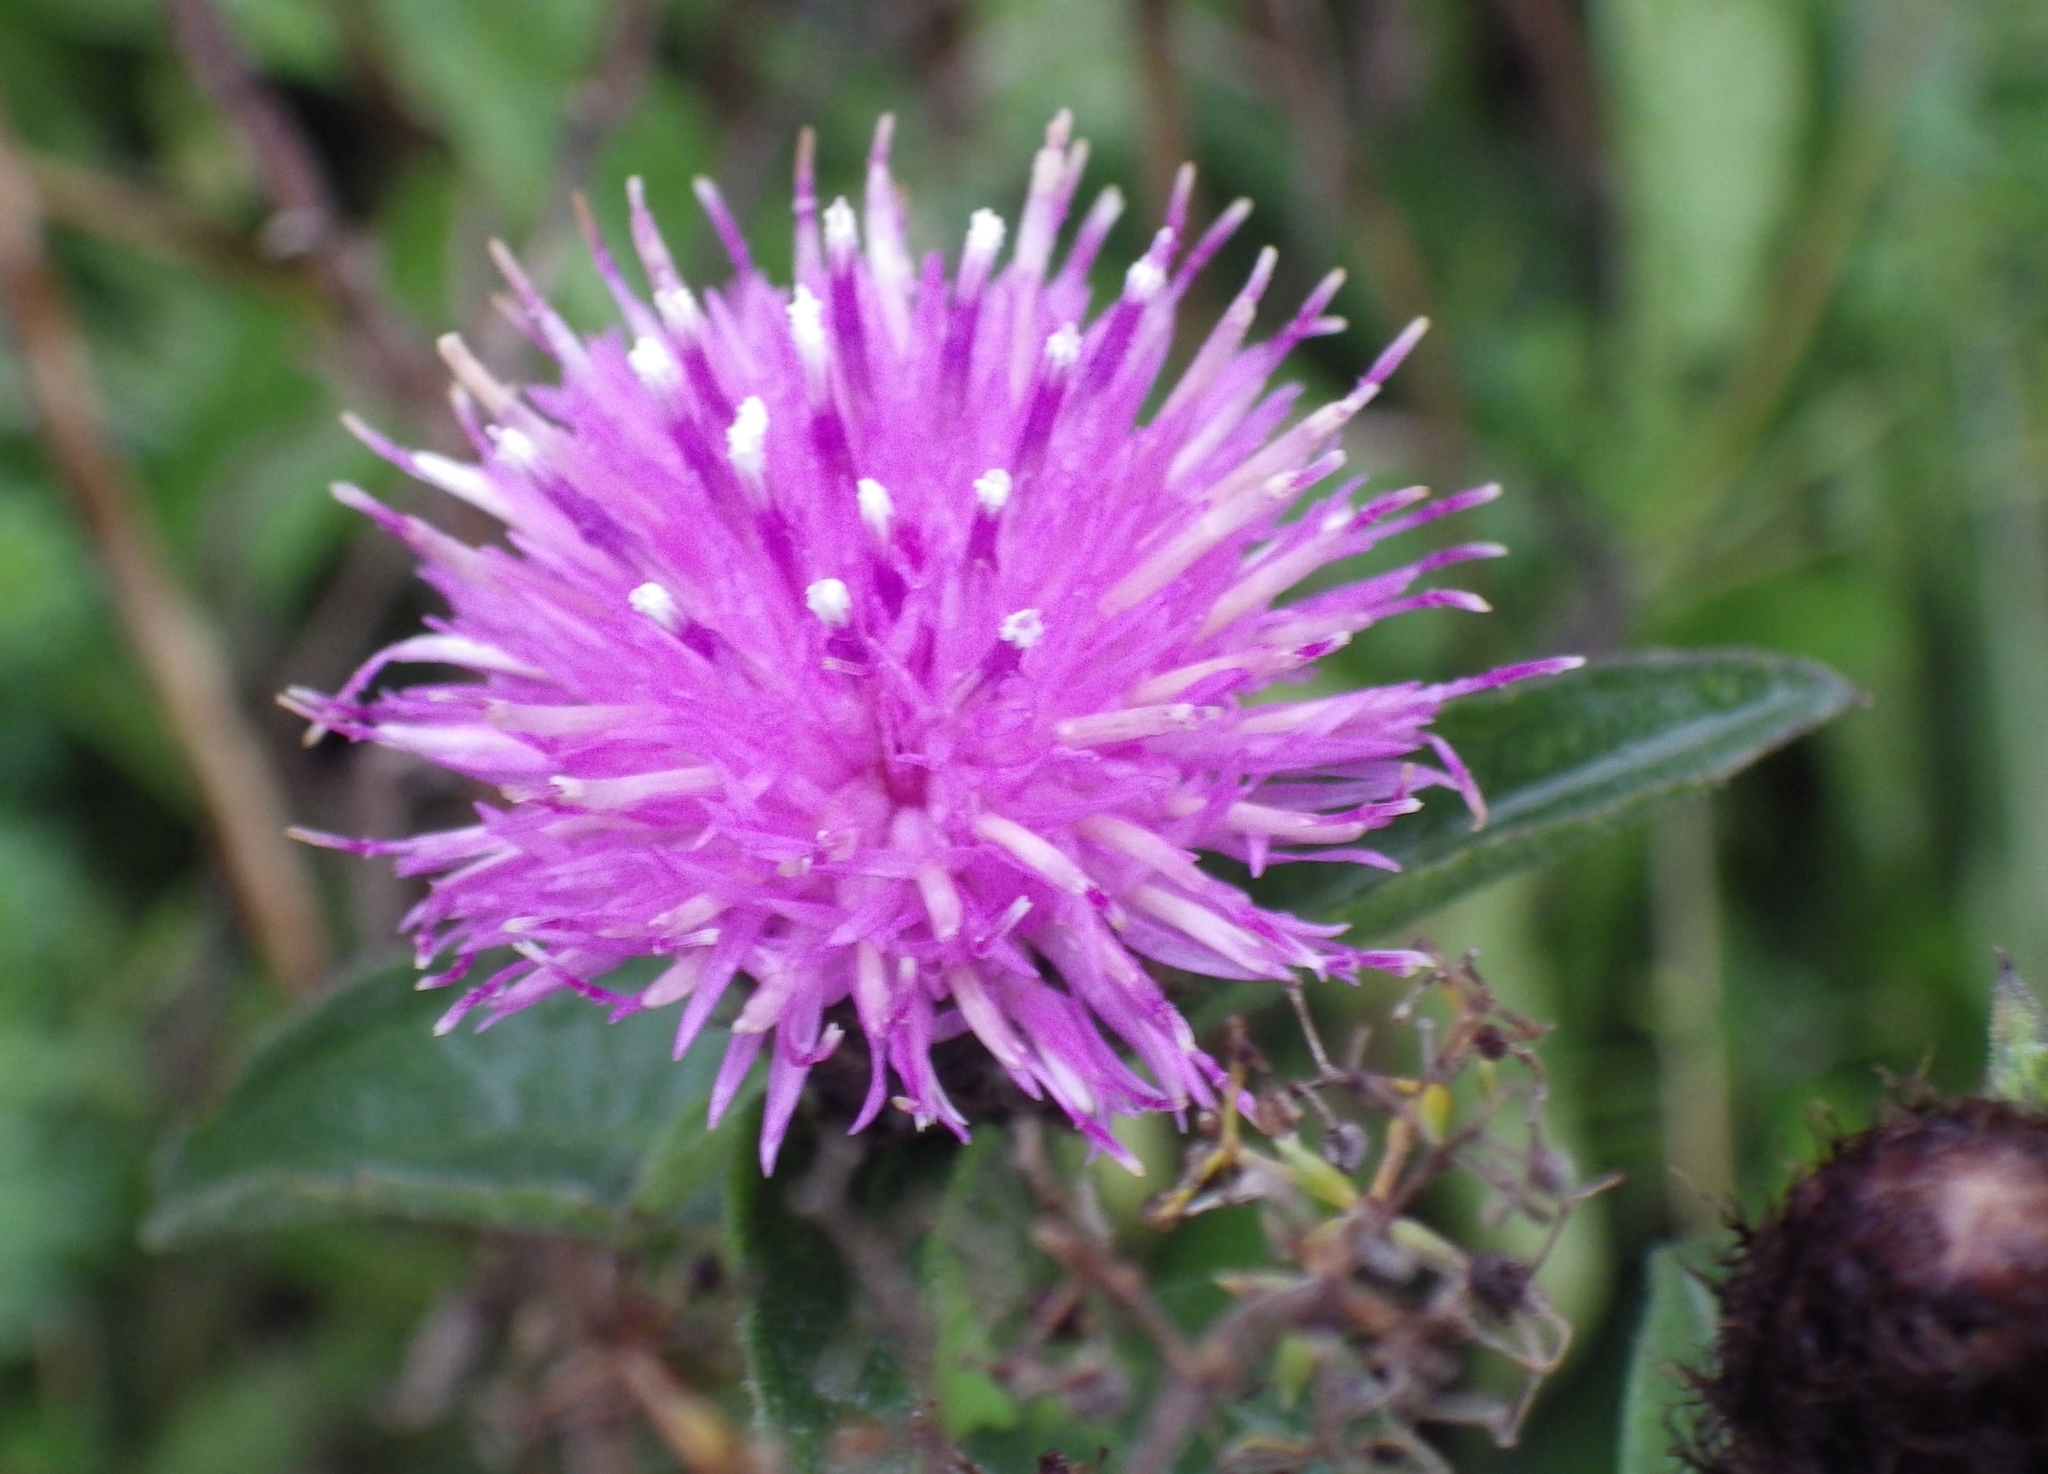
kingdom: Plantae
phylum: Tracheophyta
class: Magnoliopsida
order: Asterales
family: Asteraceae
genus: Centaurea
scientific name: Centaurea nigra
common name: Lesser knapweed
